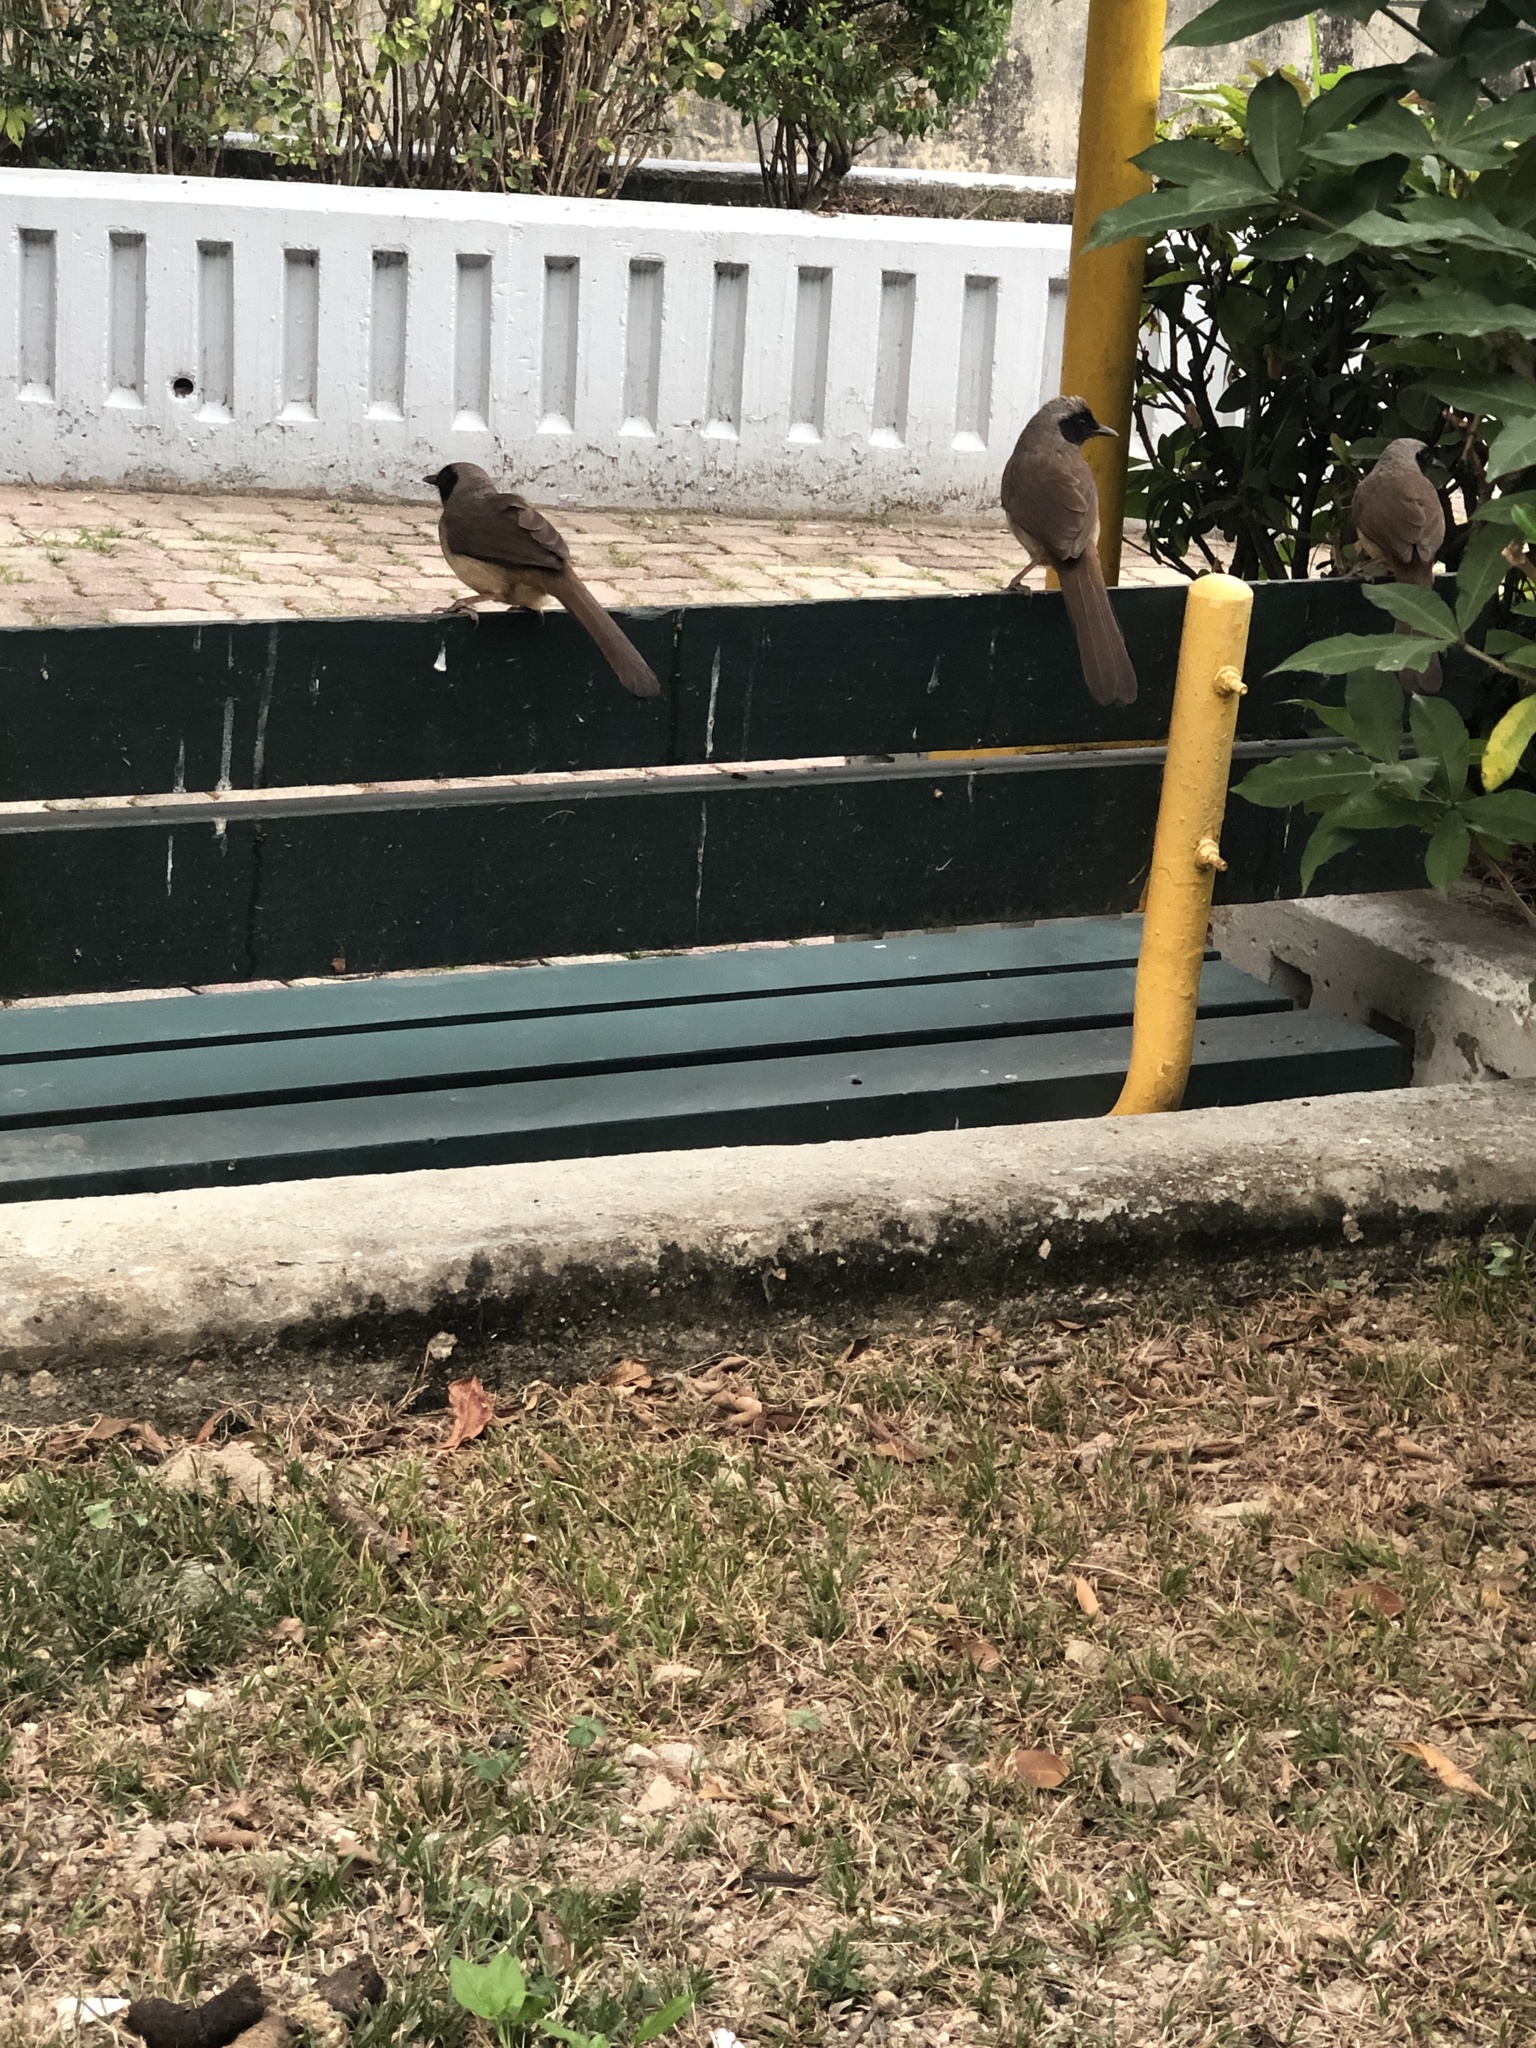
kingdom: Animalia
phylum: Chordata
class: Aves
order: Passeriformes
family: Leiothrichidae
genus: Garrulax
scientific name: Garrulax perspicillatus
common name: Masked laughingthrush
